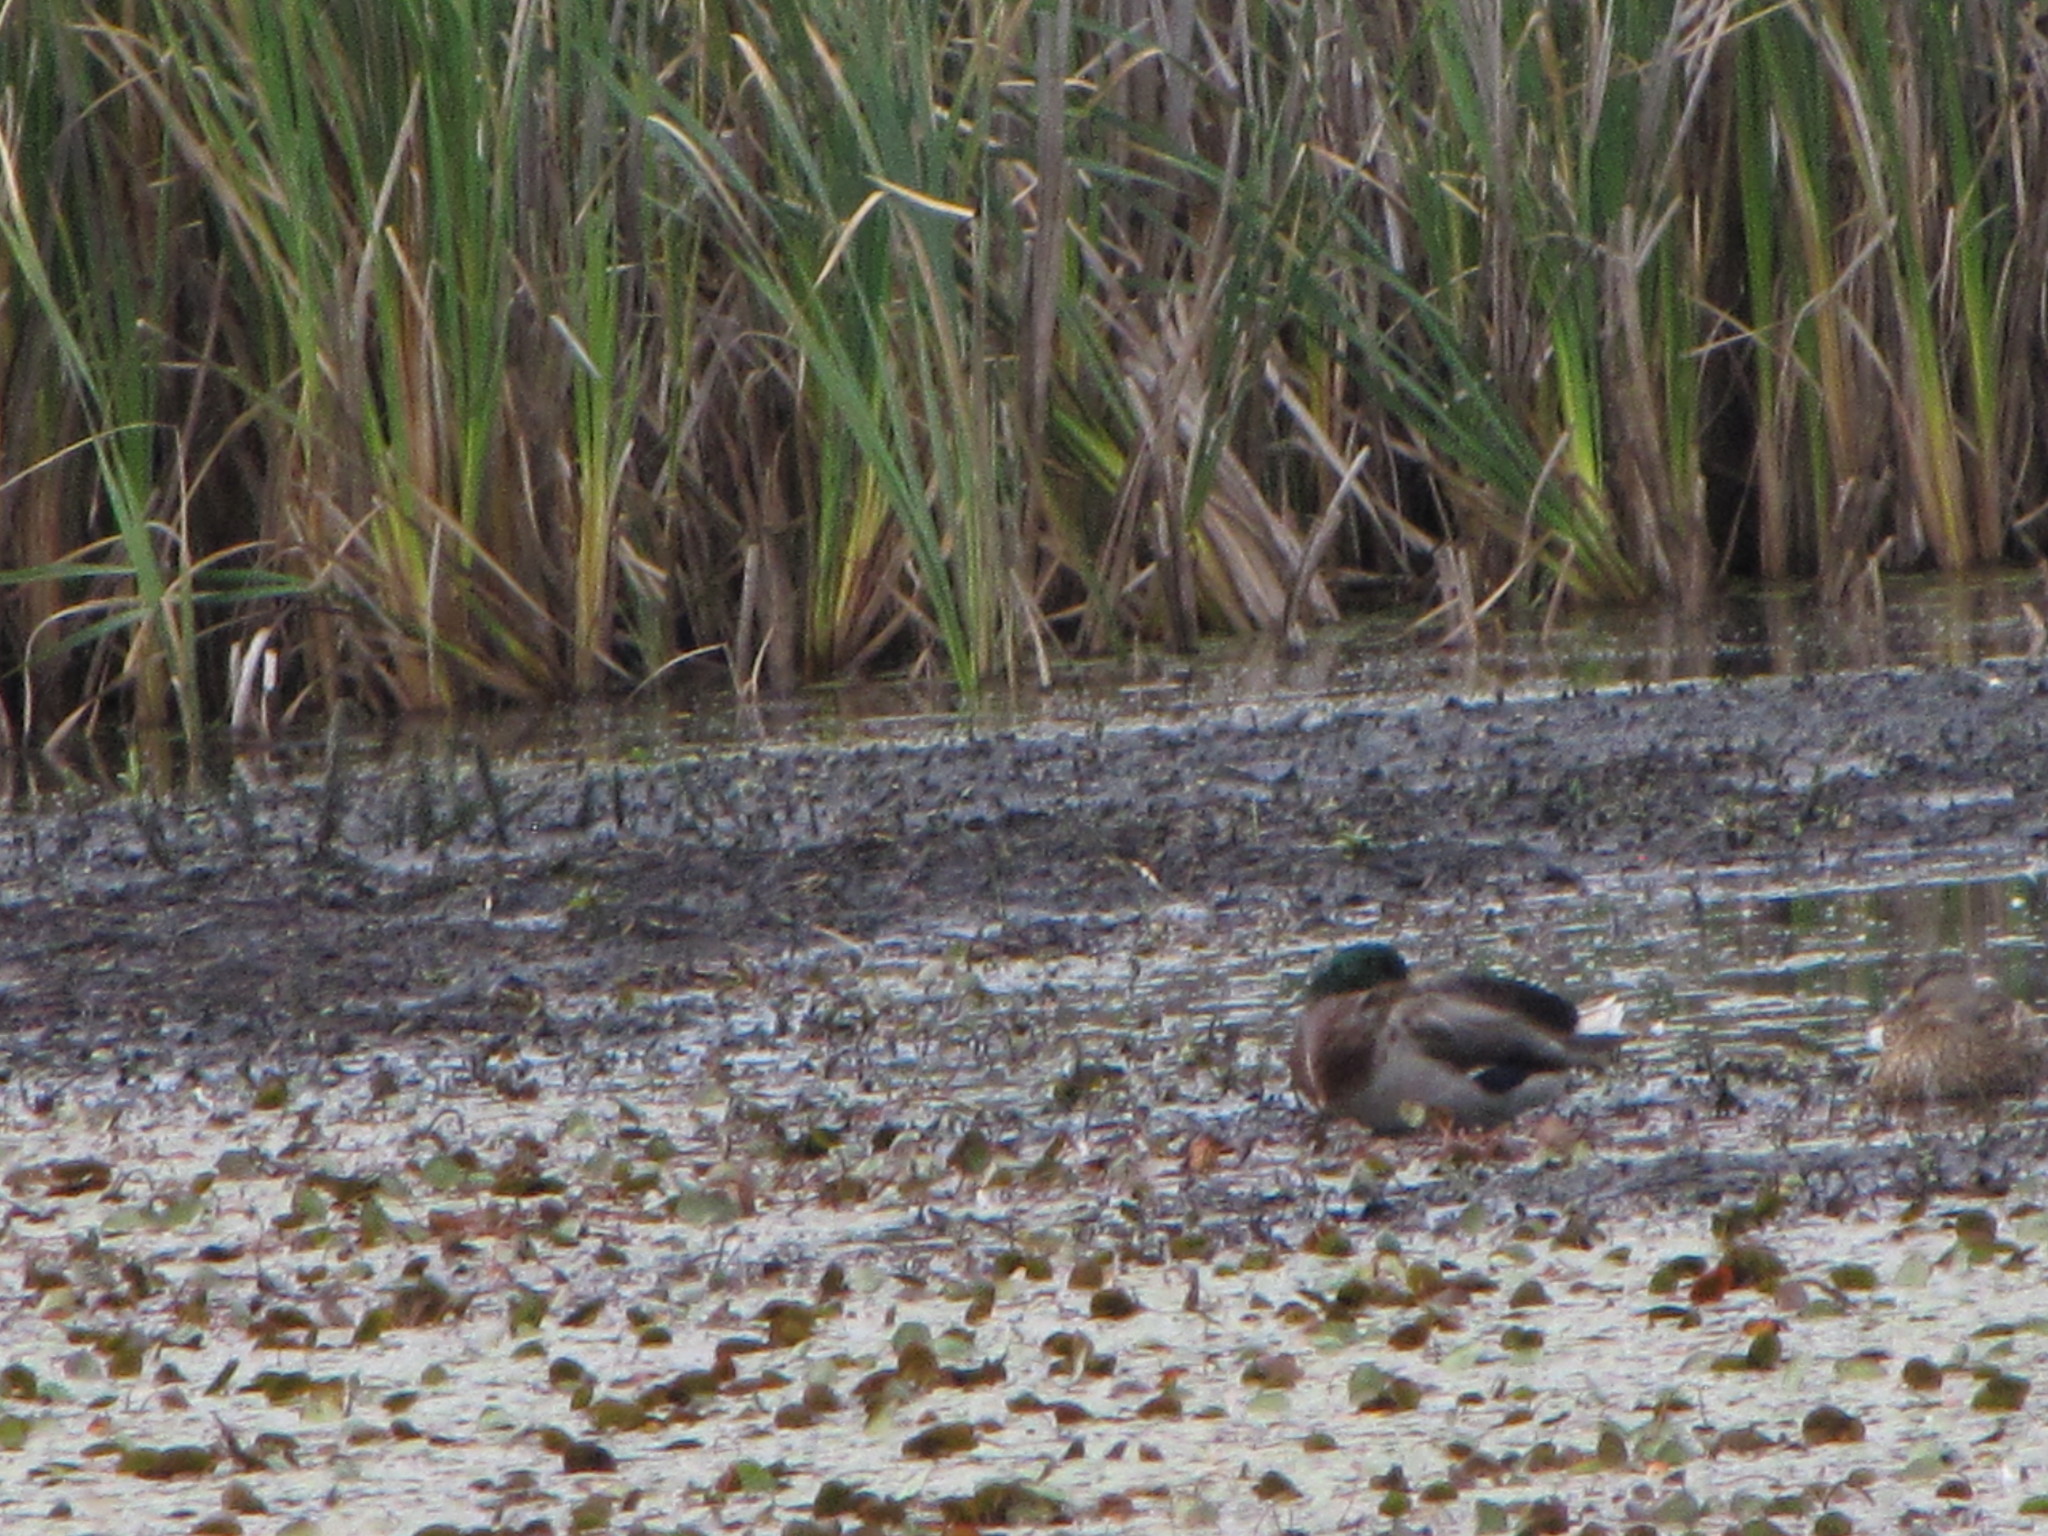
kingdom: Animalia
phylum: Chordata
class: Aves
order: Anseriformes
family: Anatidae
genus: Anas
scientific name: Anas platyrhynchos
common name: Mallard
